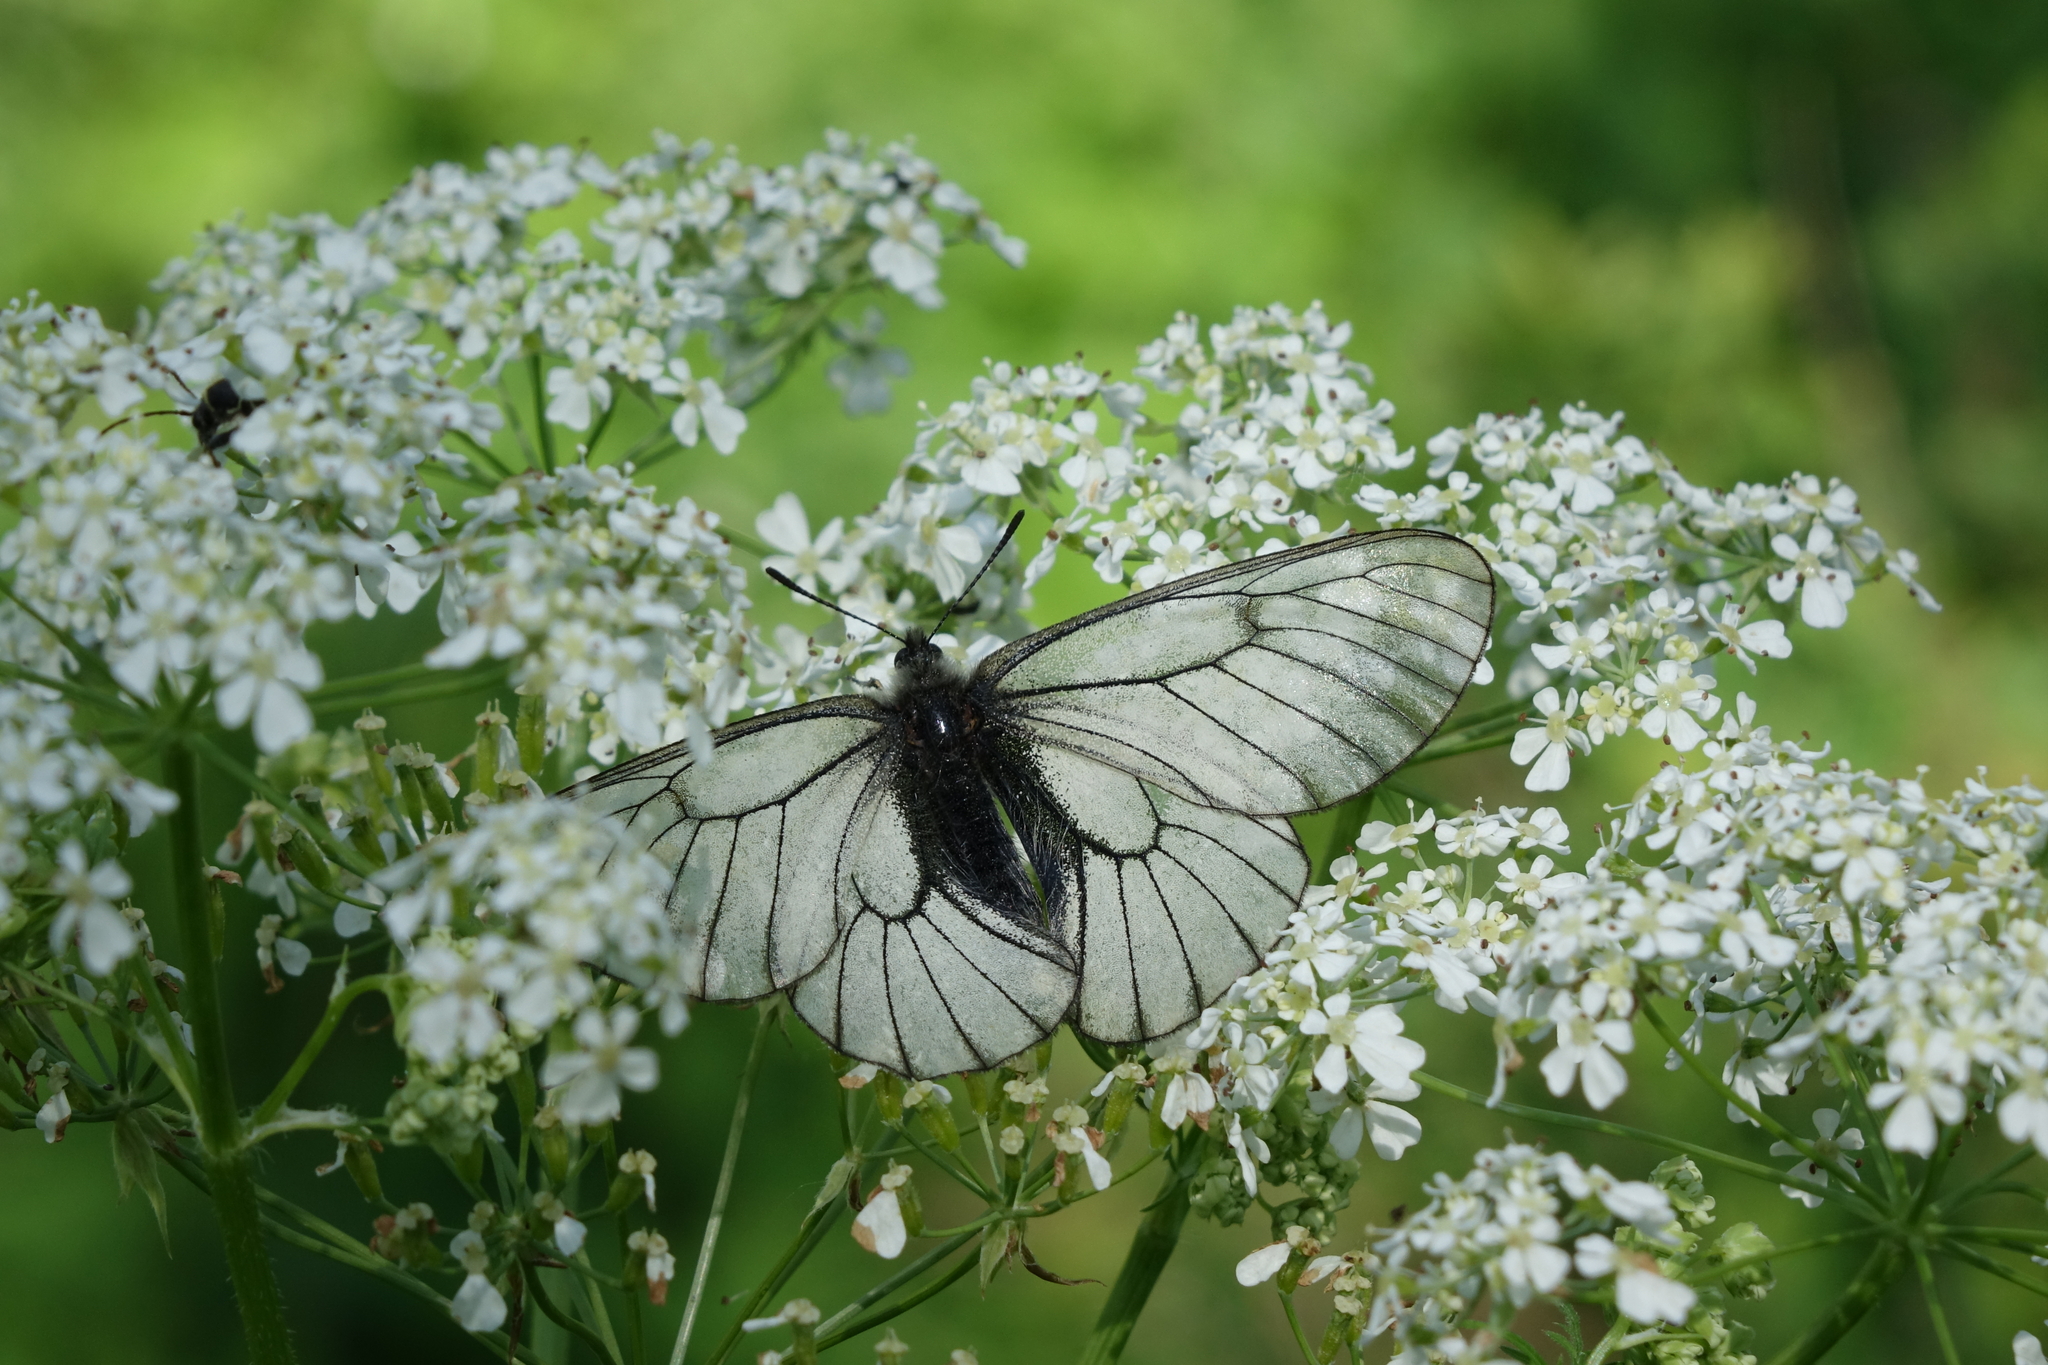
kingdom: Plantae
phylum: Tracheophyta
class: Magnoliopsida
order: Apiales
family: Apiaceae
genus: Anthriscus
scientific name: Anthriscus sylvestris
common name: Cow parsley
